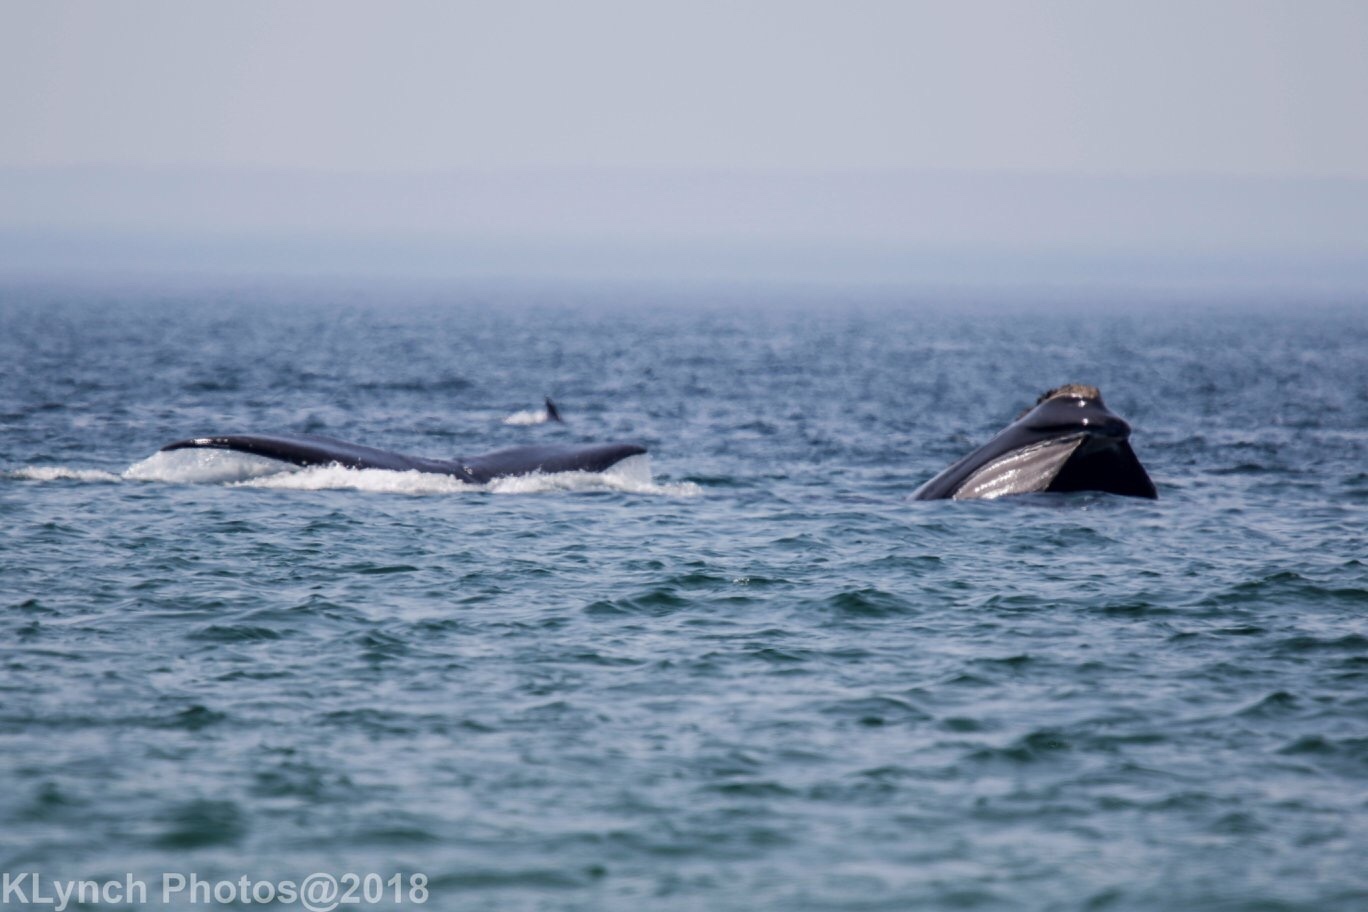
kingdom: Animalia
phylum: Chordata
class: Mammalia
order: Cetacea
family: Balaenidae
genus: Eubalaena
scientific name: Eubalaena glacialis
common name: North atlantic right whale
